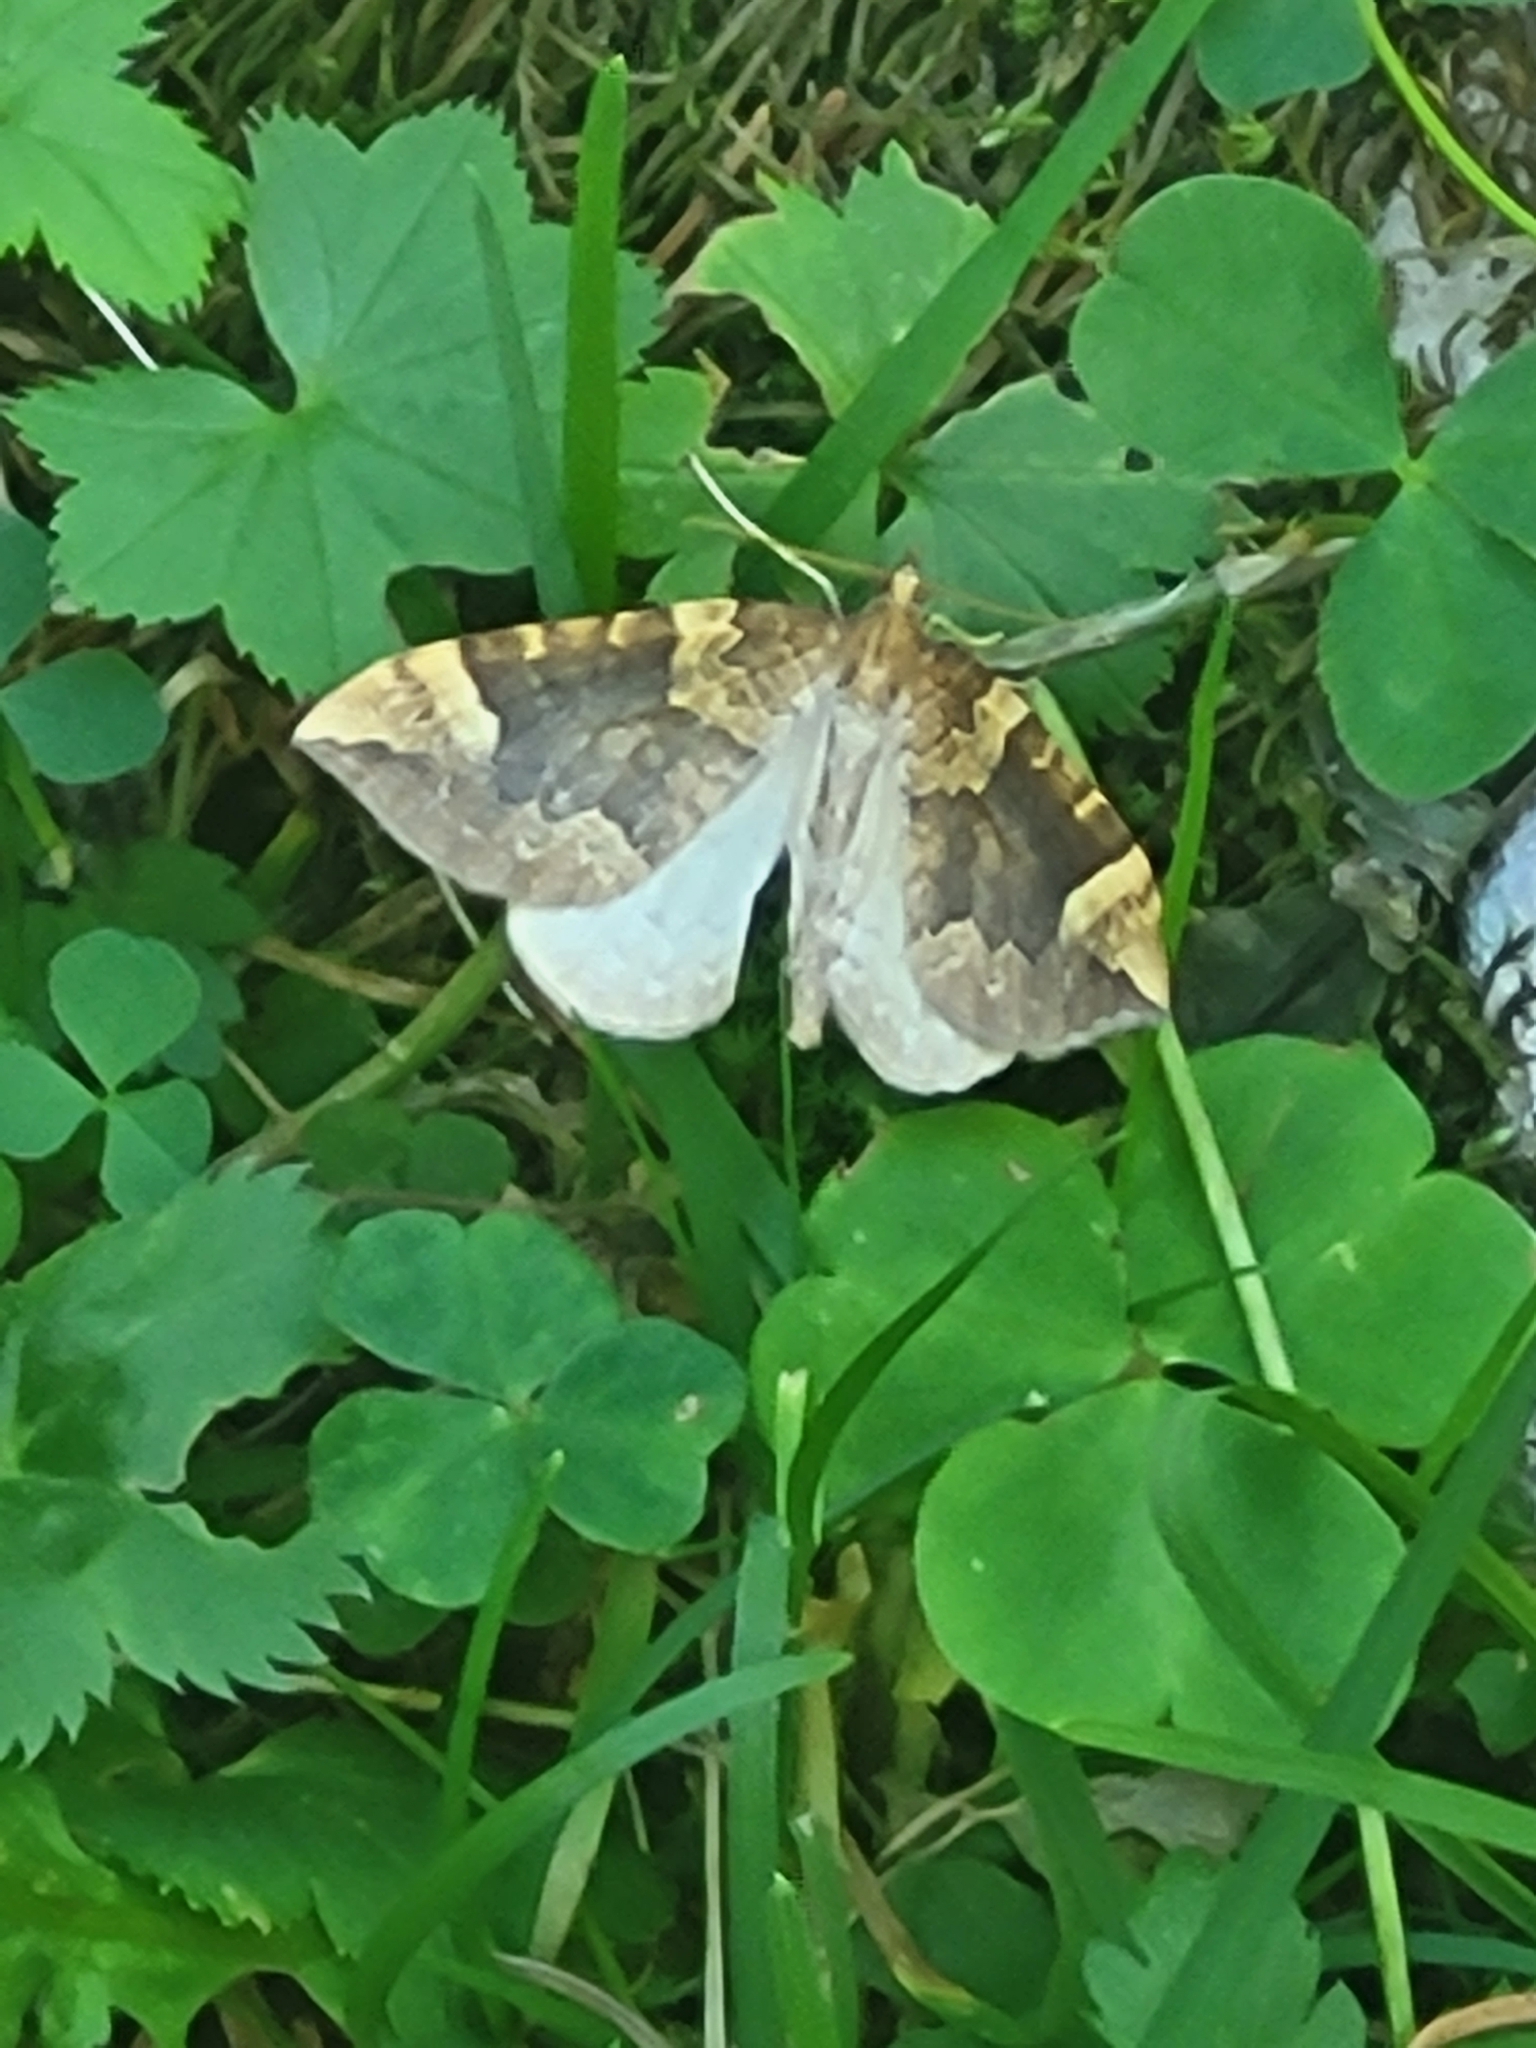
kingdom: Animalia
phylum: Arthropoda
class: Insecta
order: Lepidoptera
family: Geometridae
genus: Eulithis
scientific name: Eulithis populata
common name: Northern spinach
